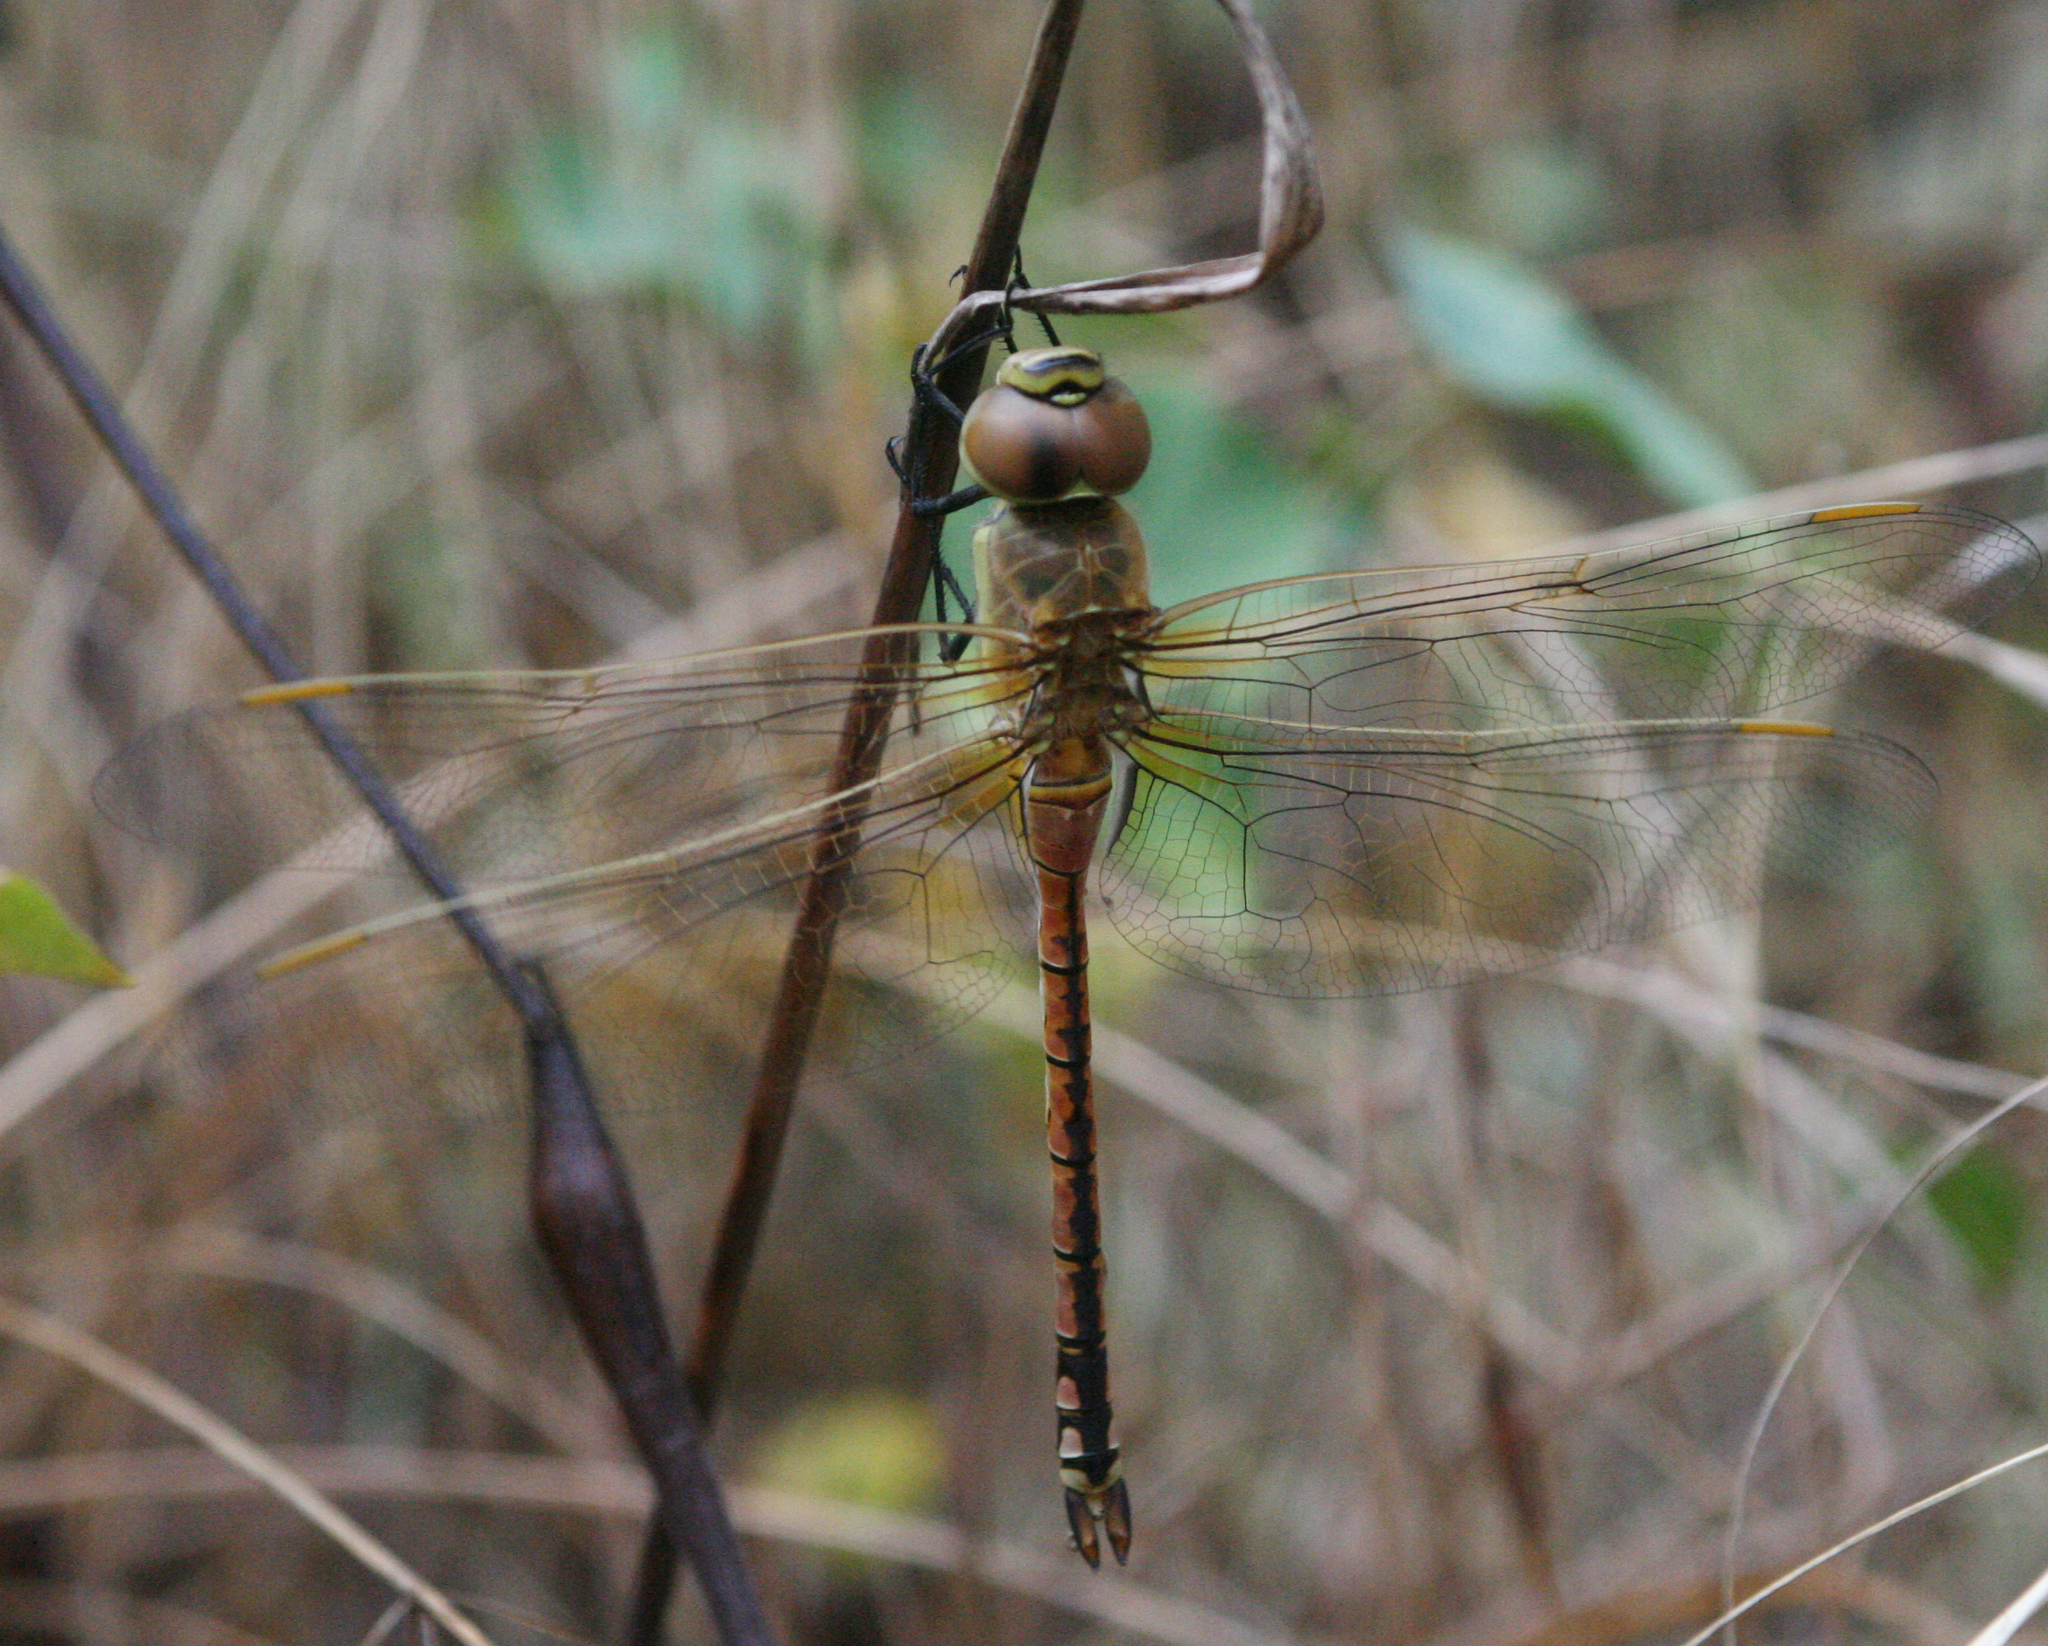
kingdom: Animalia
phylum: Arthropoda
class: Insecta
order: Odonata
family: Aeshnidae
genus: Anax
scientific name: Anax ephippiger
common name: Vagrant emperor
